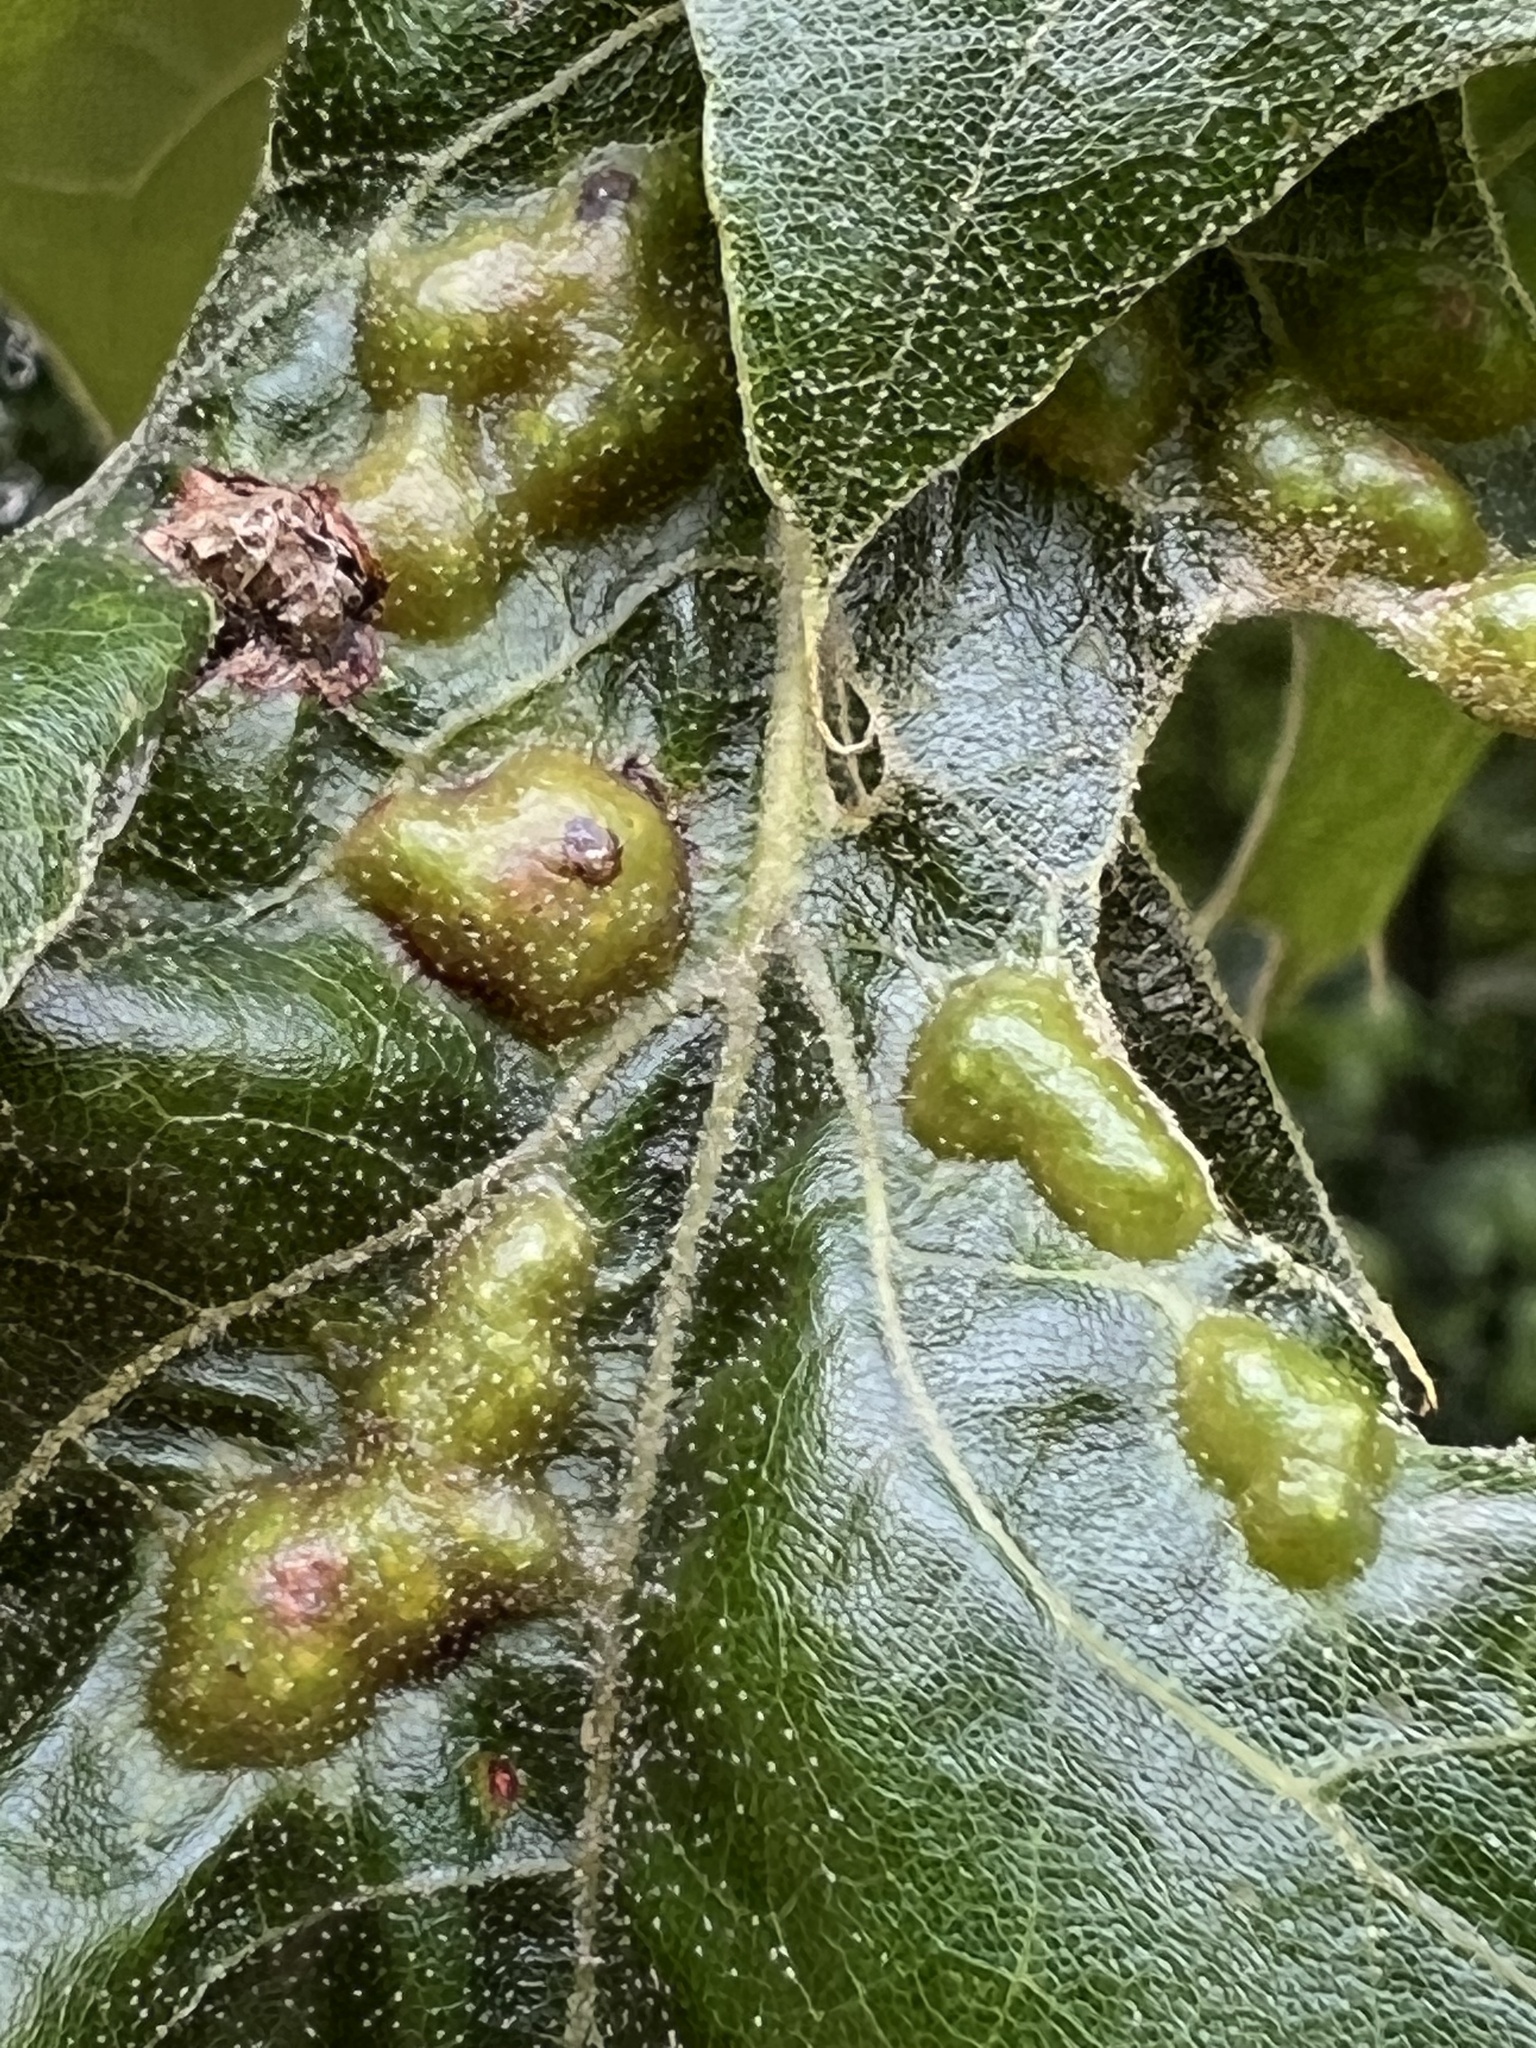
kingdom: Animalia
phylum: Arthropoda
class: Insecta
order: Hymenoptera
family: Cynipidae
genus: Melikaiella
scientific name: Melikaiella ostensackeni
